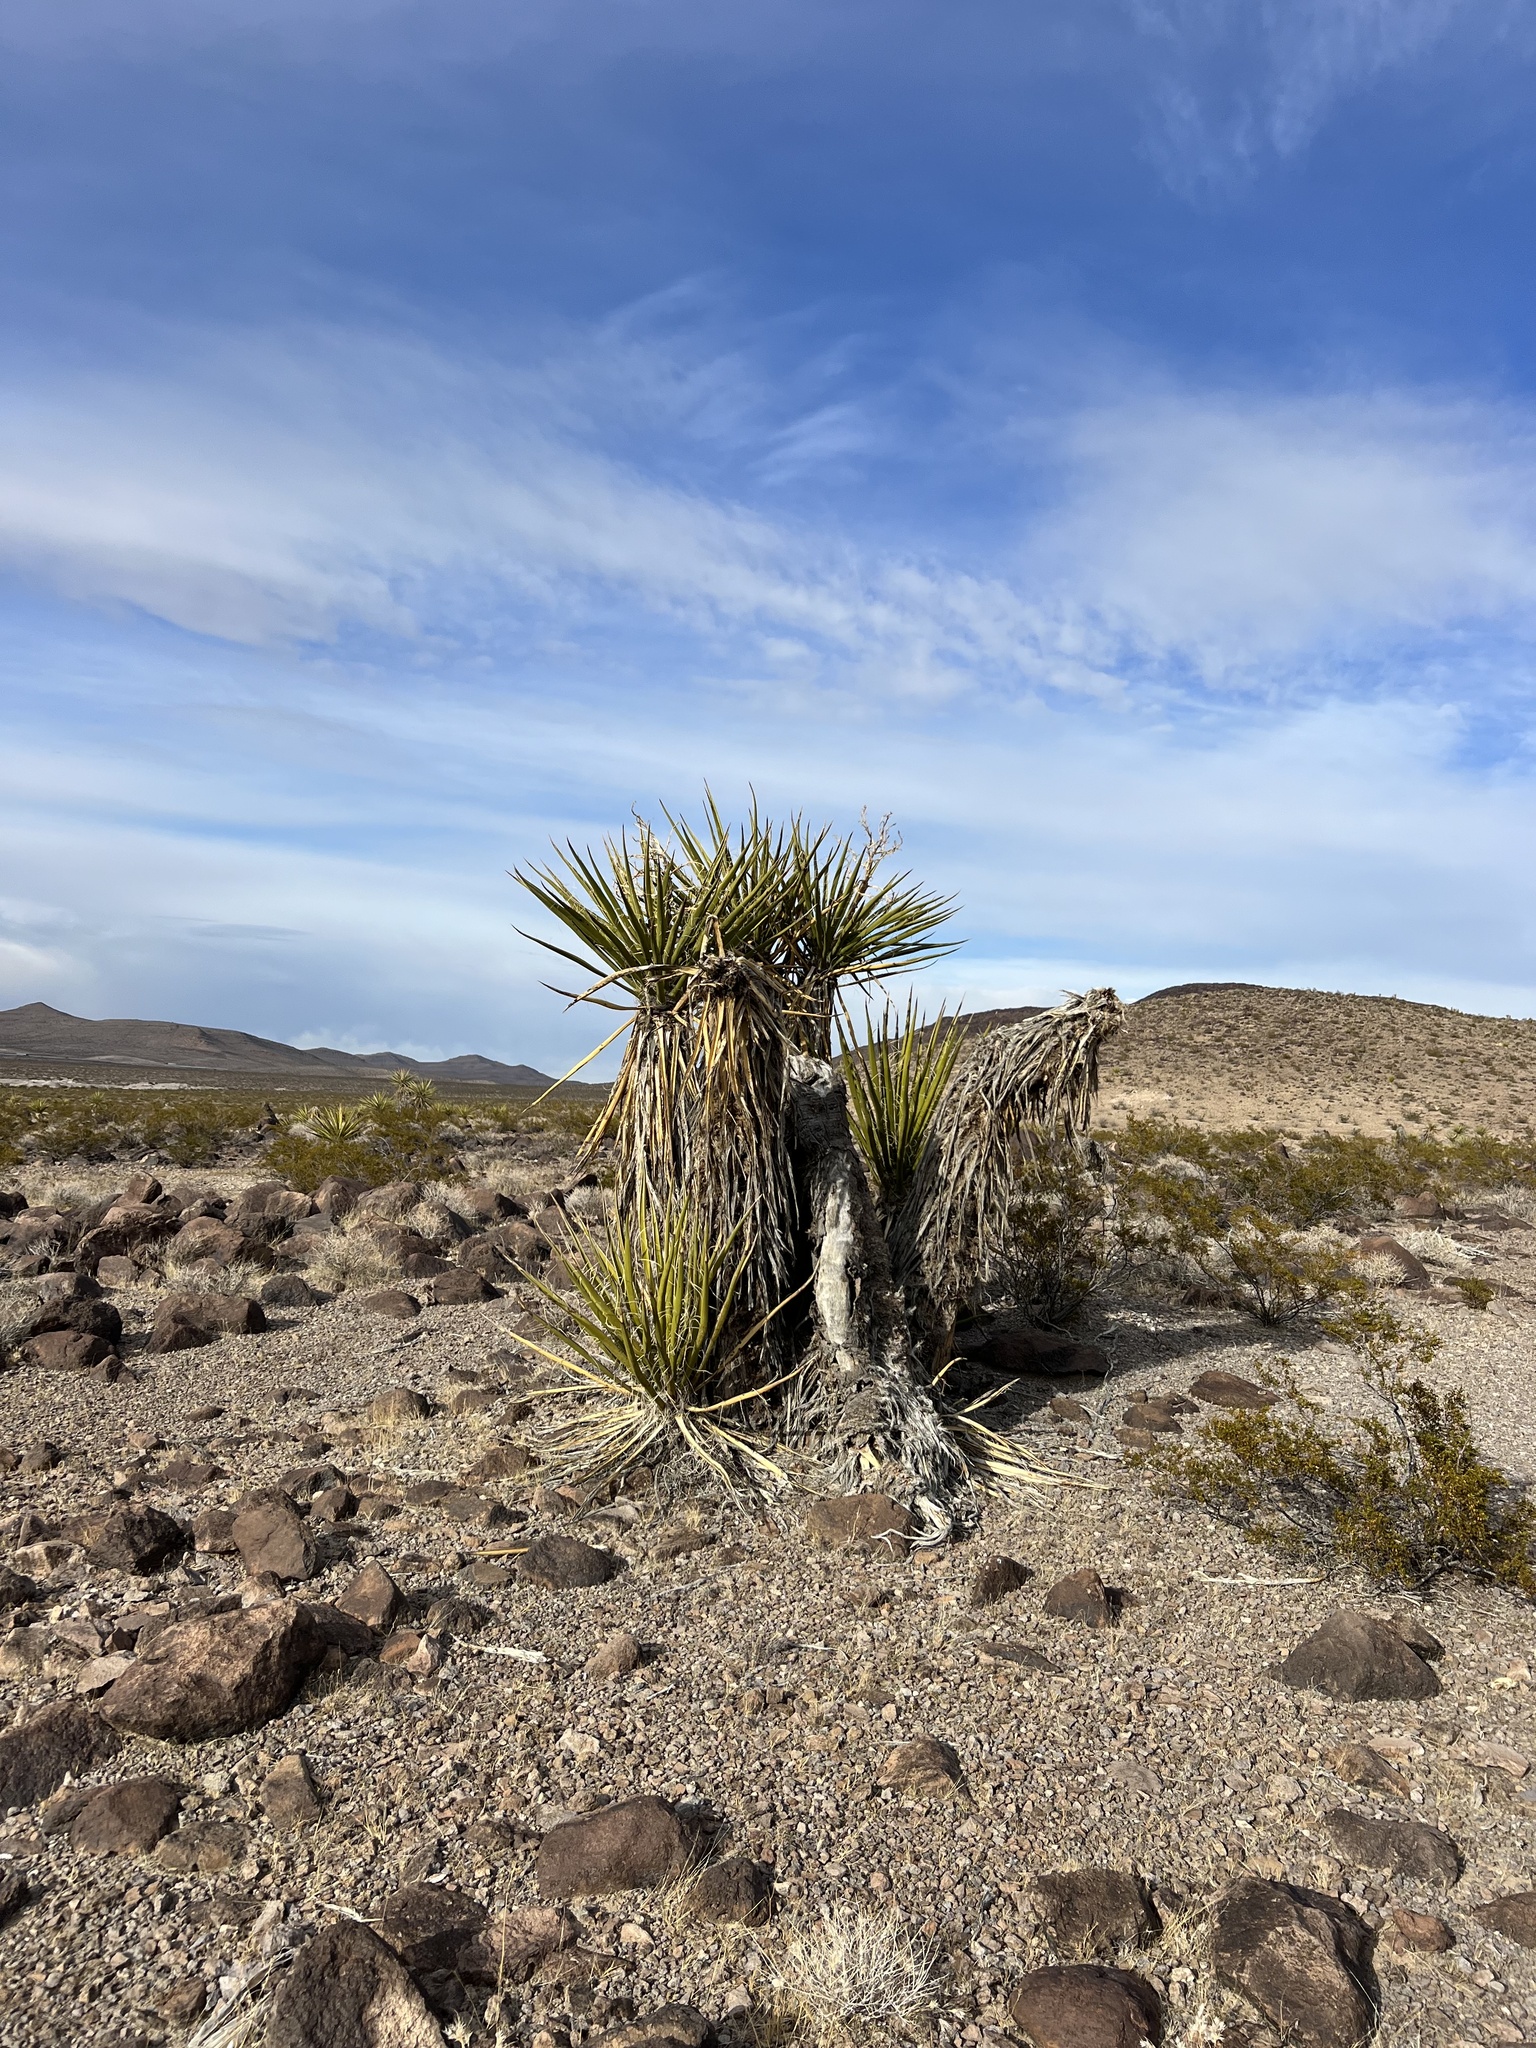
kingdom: Plantae
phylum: Tracheophyta
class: Liliopsida
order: Asparagales
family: Asparagaceae
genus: Yucca
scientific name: Yucca schidigera
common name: Mojave yucca
